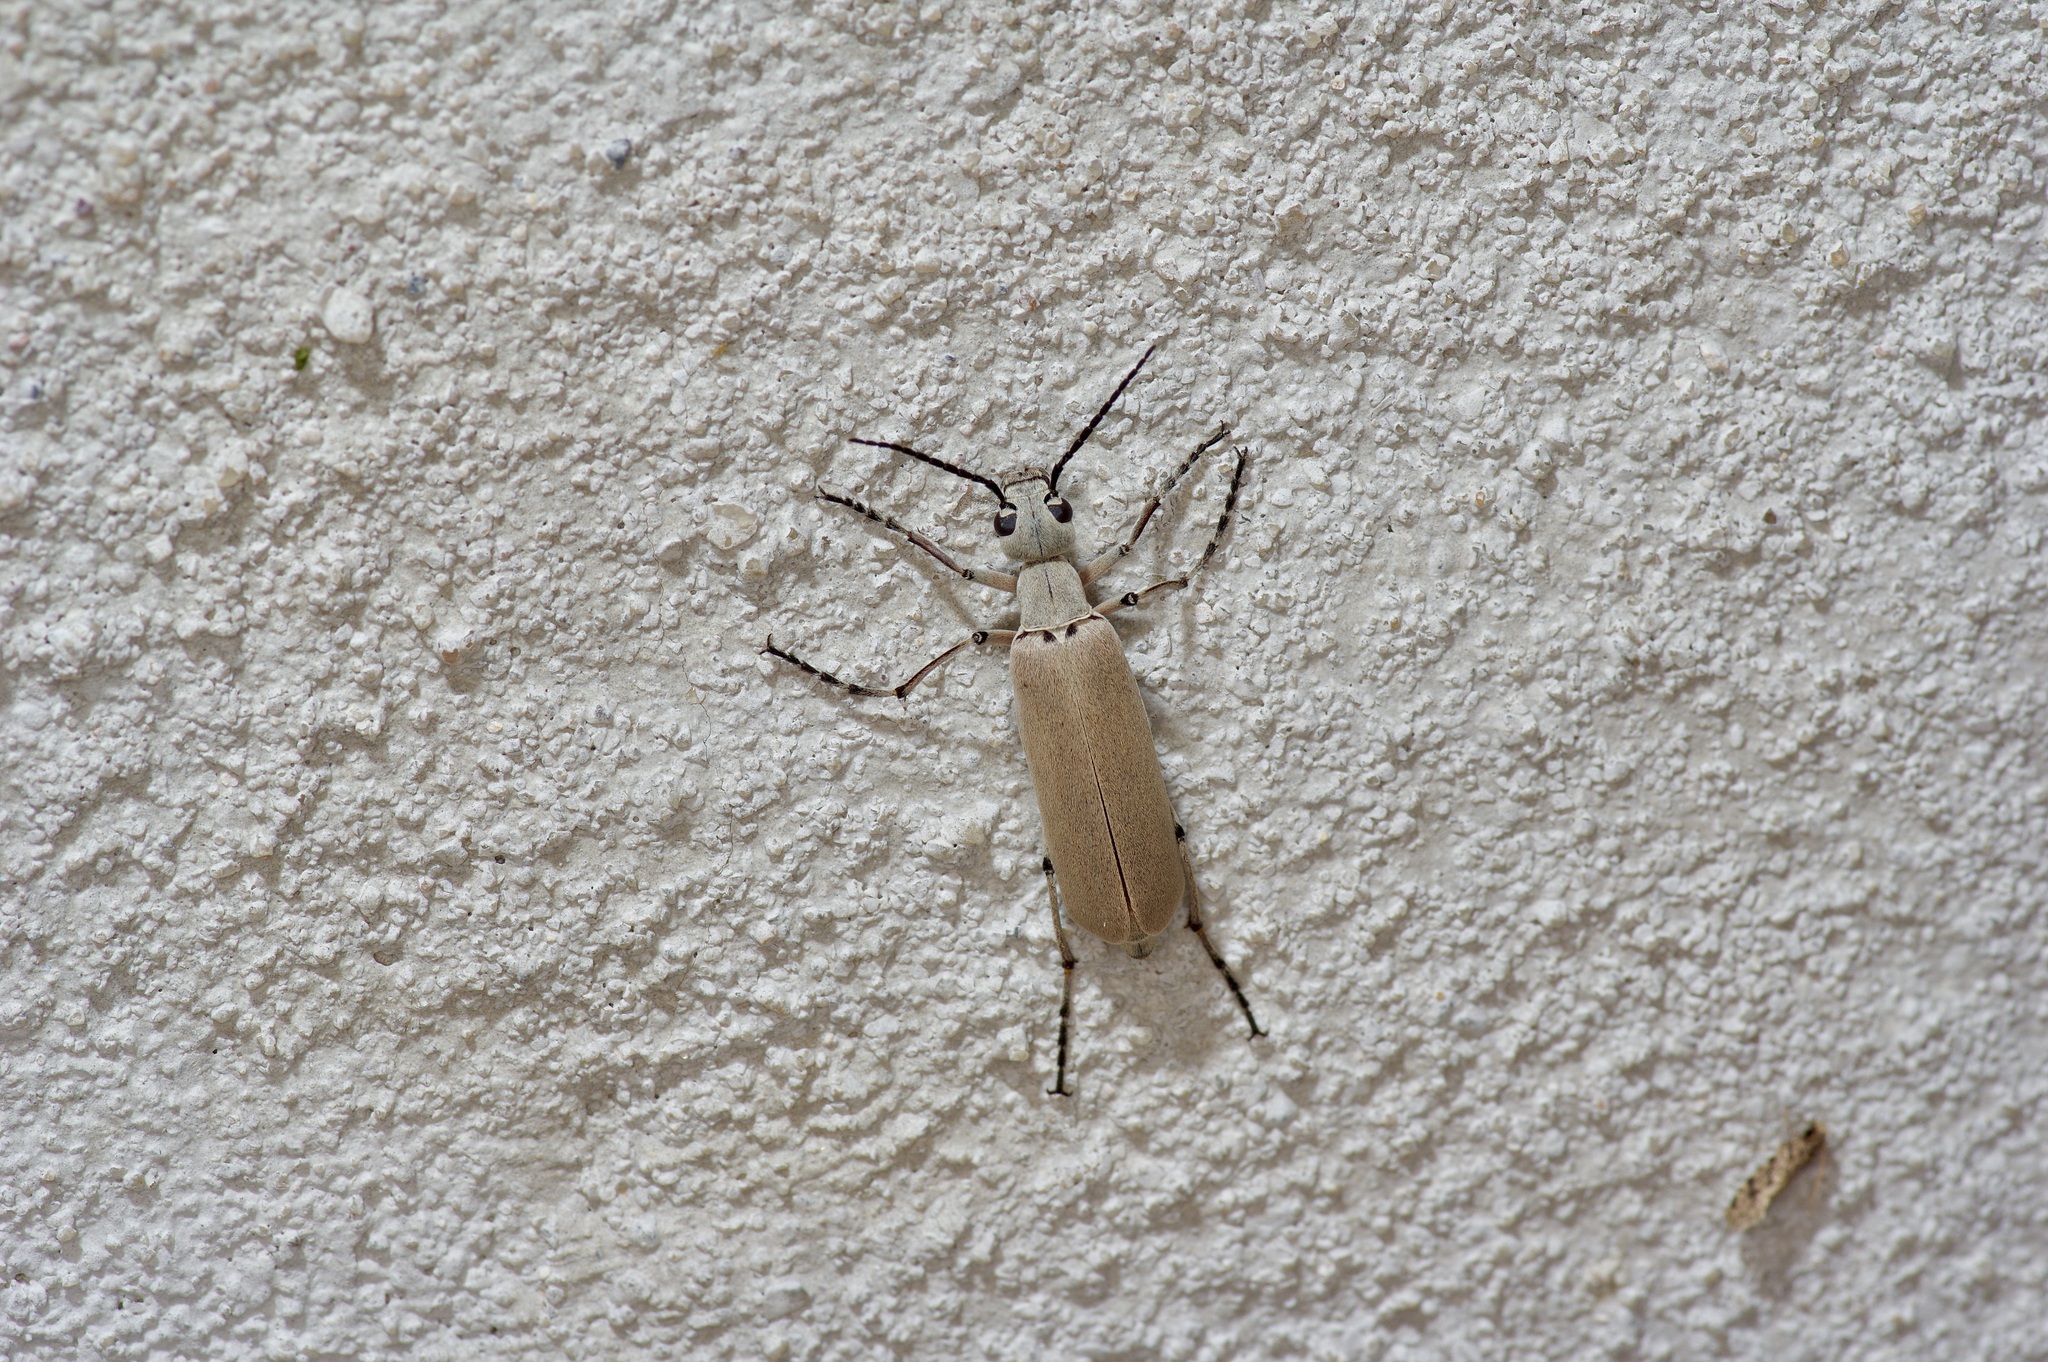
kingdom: Animalia
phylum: Arthropoda
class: Insecta
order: Coleoptera
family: Meloidae
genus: Epicauta
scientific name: Epicauta polingi
